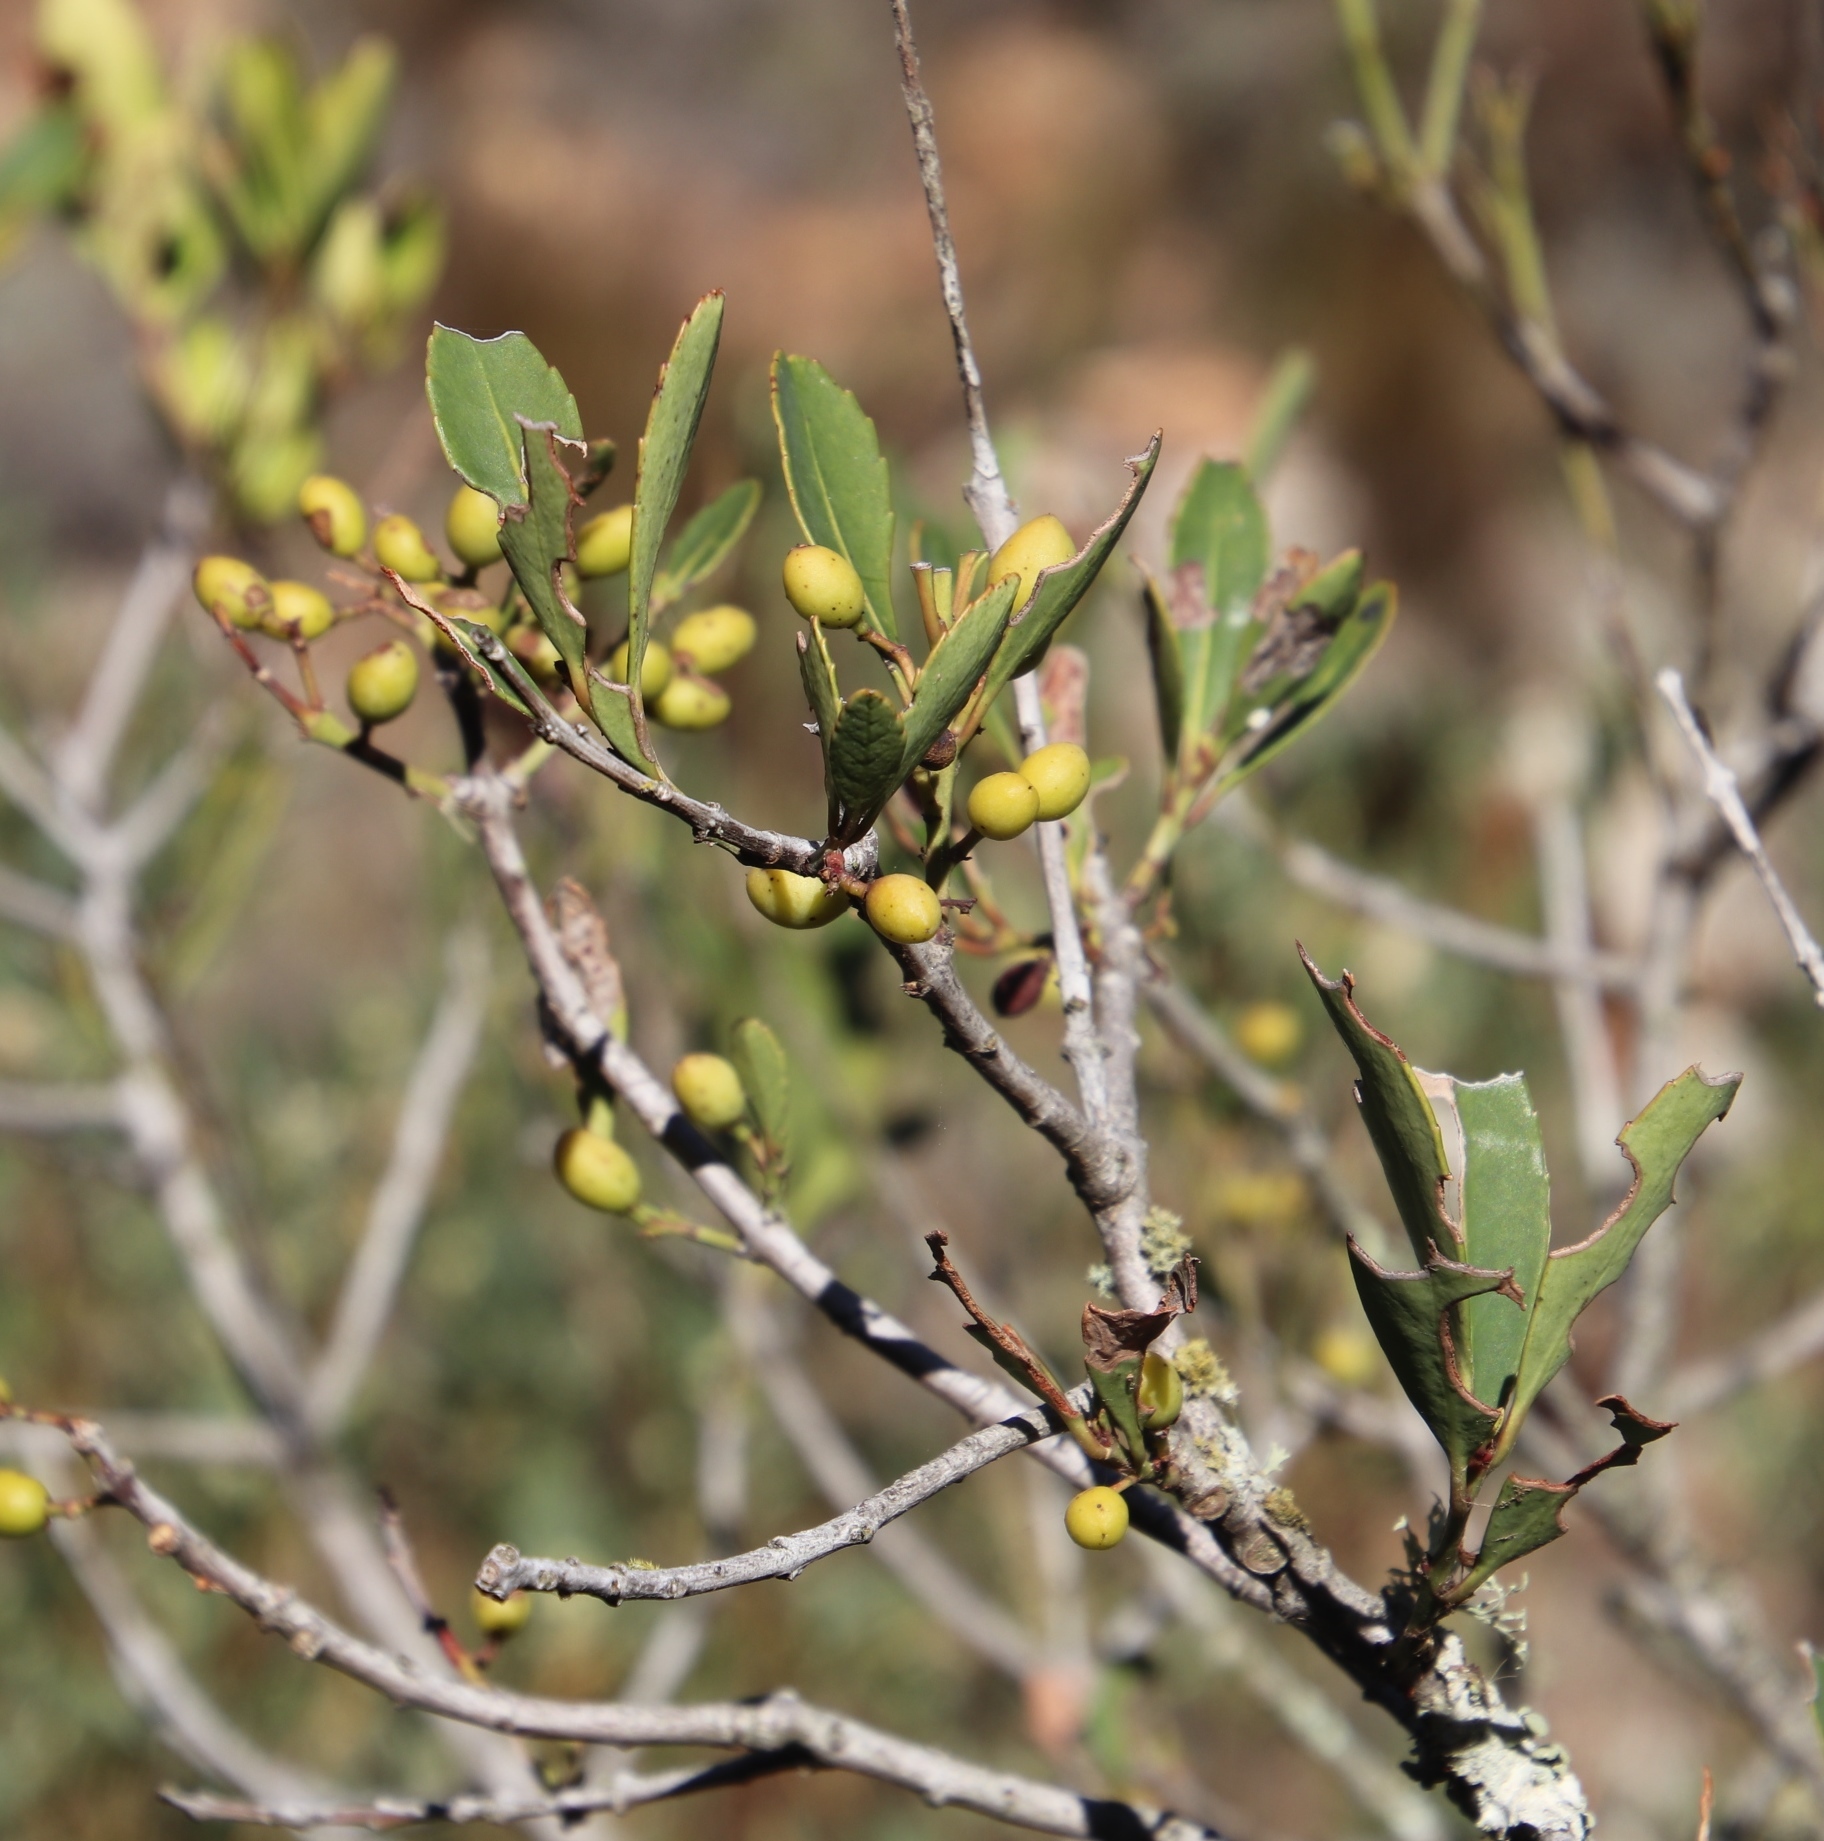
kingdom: Plantae
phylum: Tracheophyta
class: Magnoliopsida
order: Celastrales
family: Celastraceae
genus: Elaeodendron
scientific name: Elaeodendron schinoides
